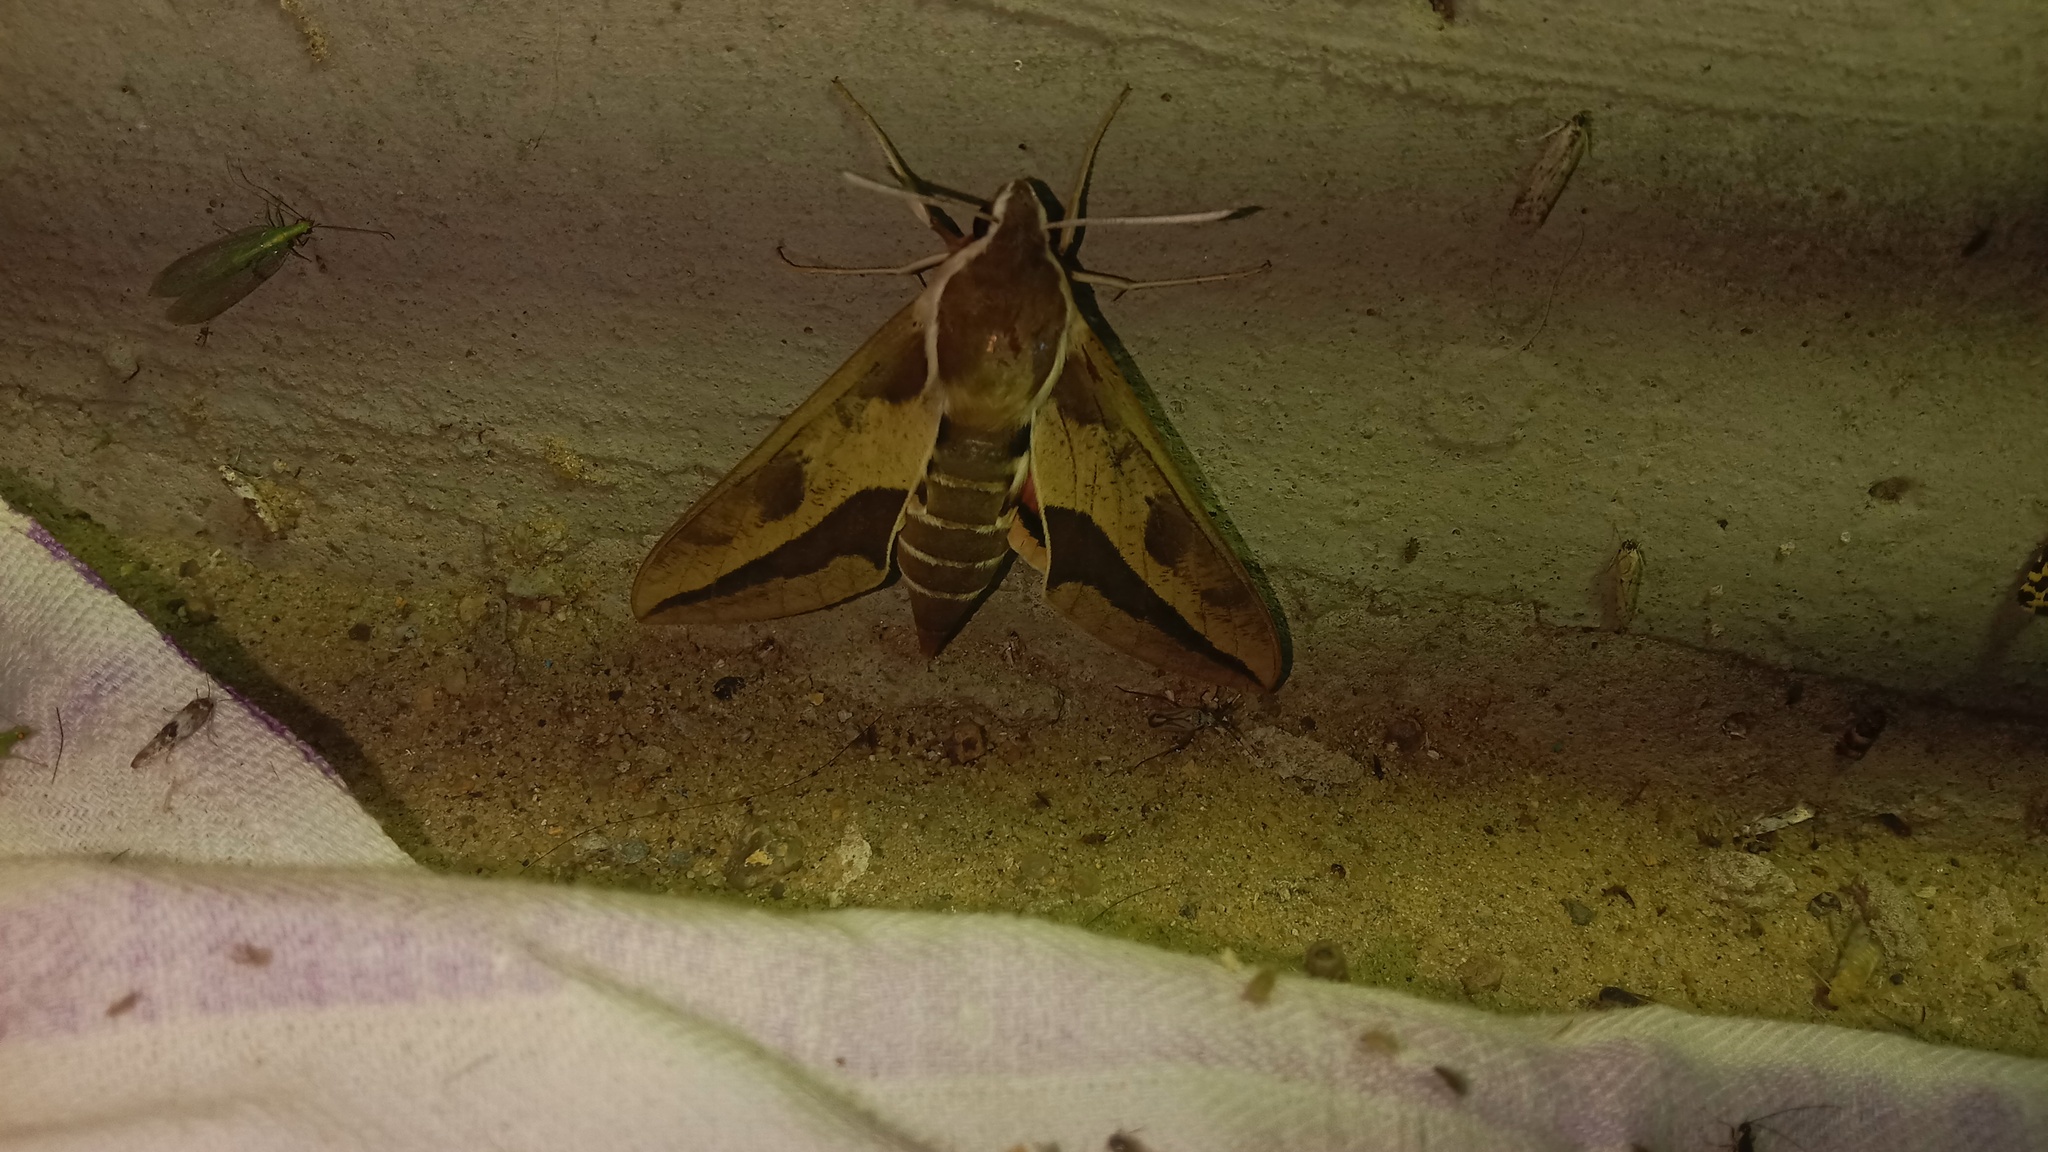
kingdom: Animalia
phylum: Arthropoda
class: Insecta
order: Lepidoptera
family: Sphingidae
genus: Hyles
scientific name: Hyles euphorbiae
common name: Spurge hawk-moth
